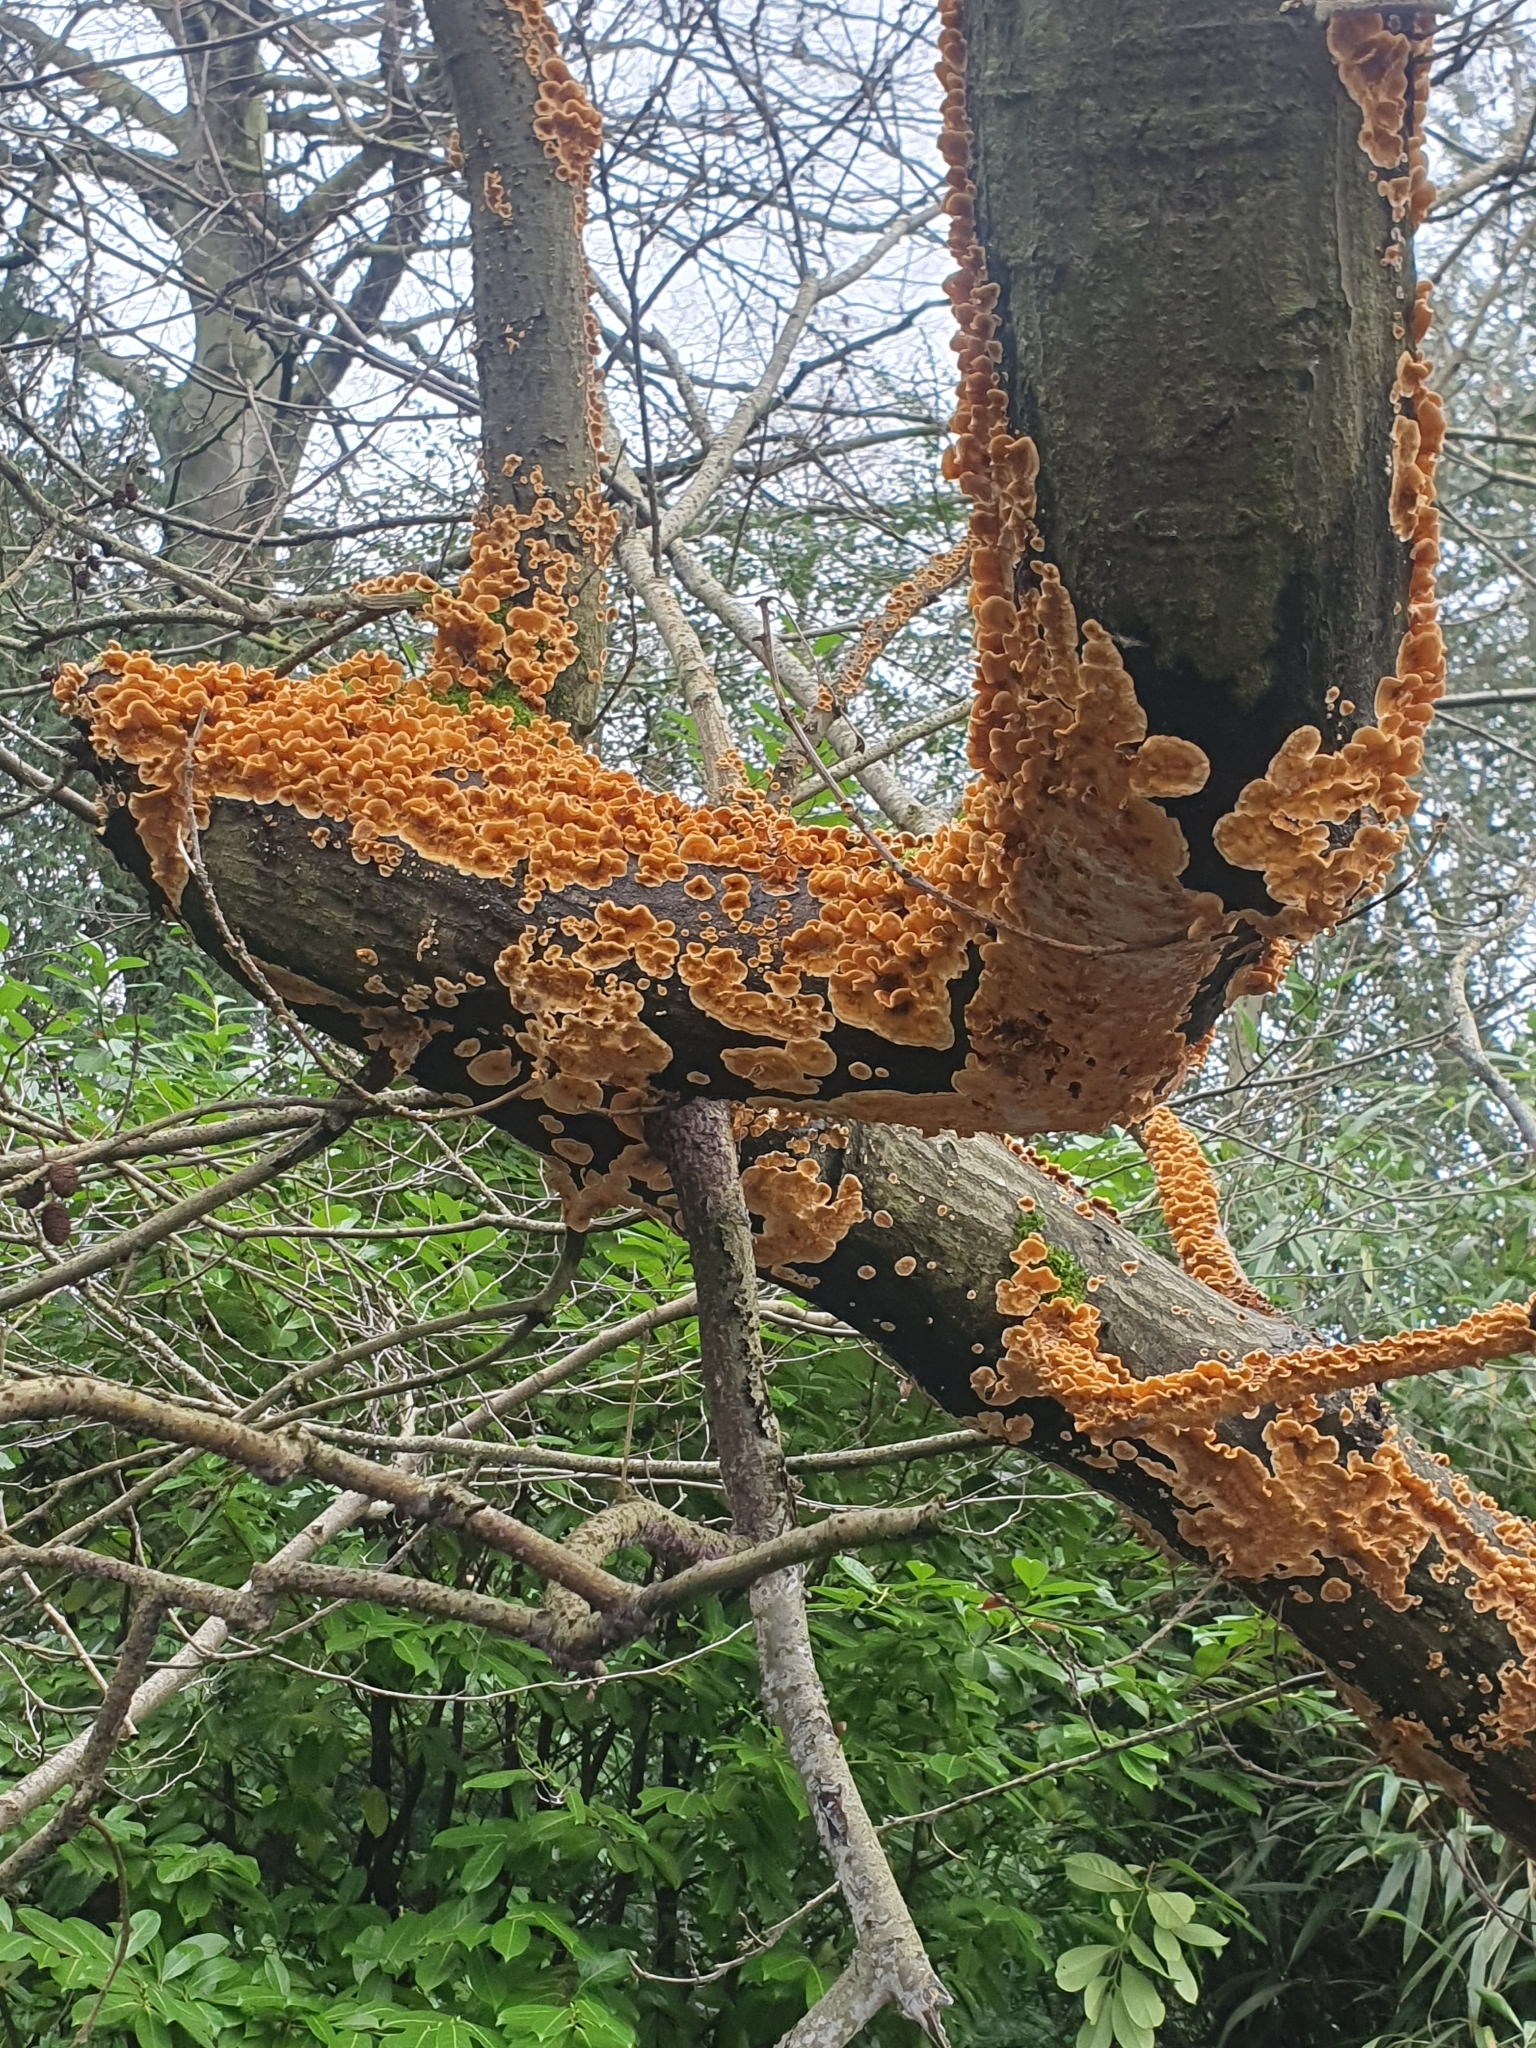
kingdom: Fungi
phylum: Basidiomycota
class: Agaricomycetes
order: Russulales
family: Stereaceae
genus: Stereum
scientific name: Stereum hirsutum
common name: Hairy curtain crust
